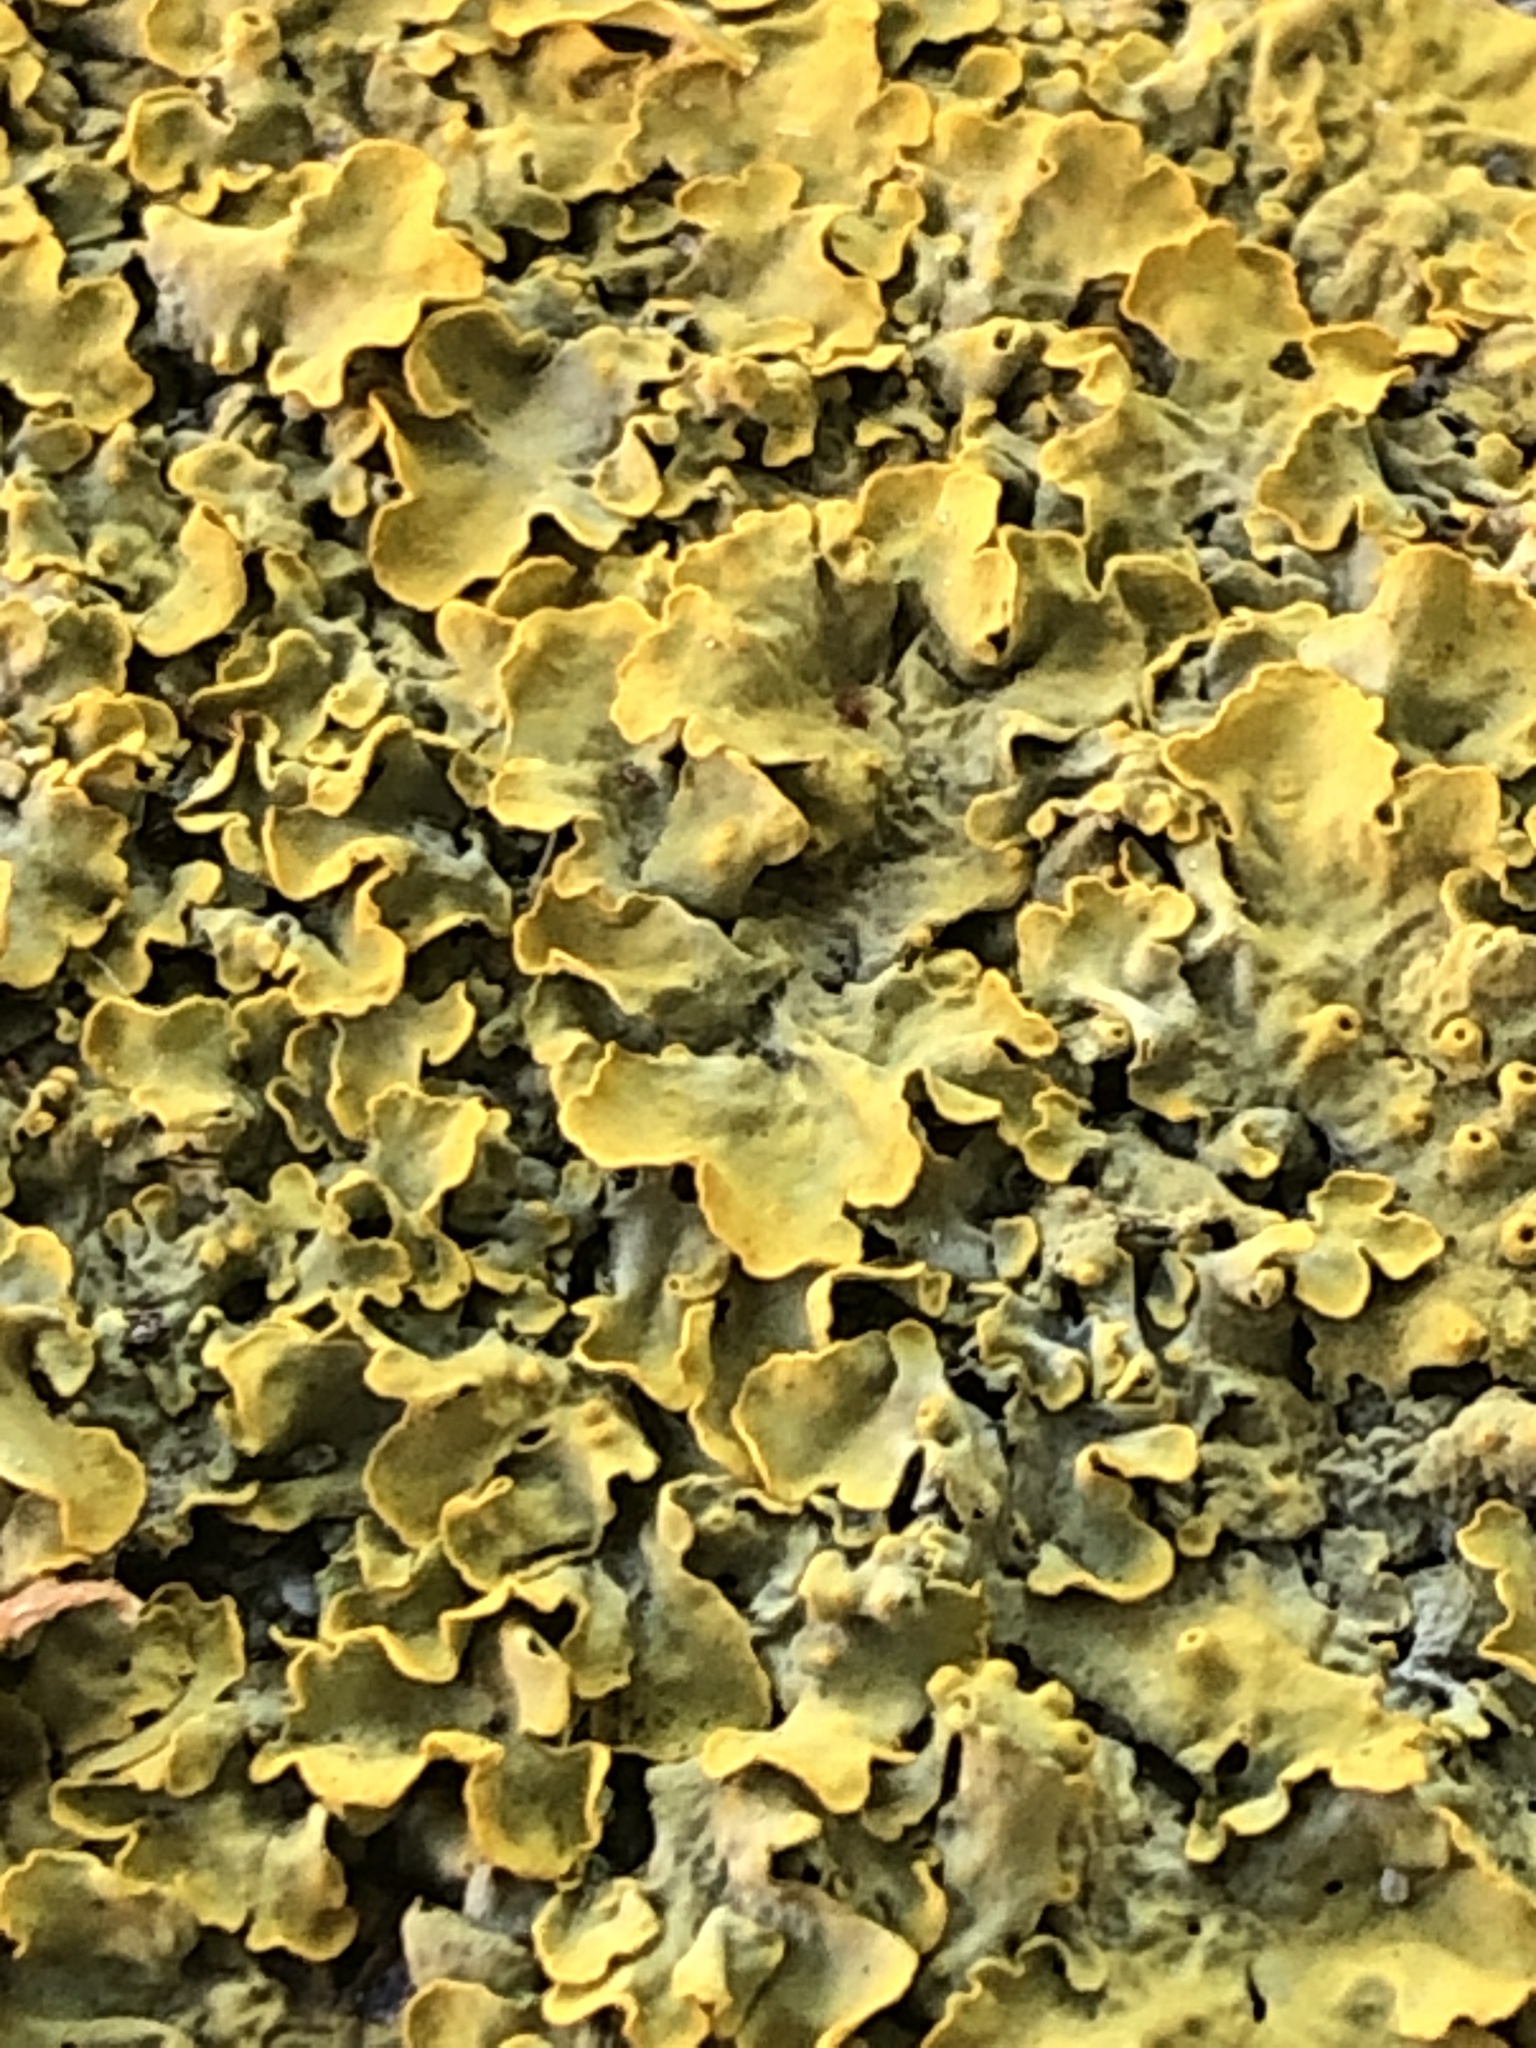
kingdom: Fungi
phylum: Ascomycota
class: Lecanoromycetes
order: Teloschistales
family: Teloschistaceae
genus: Xanthoria
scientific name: Xanthoria parietina
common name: Common orange lichen
